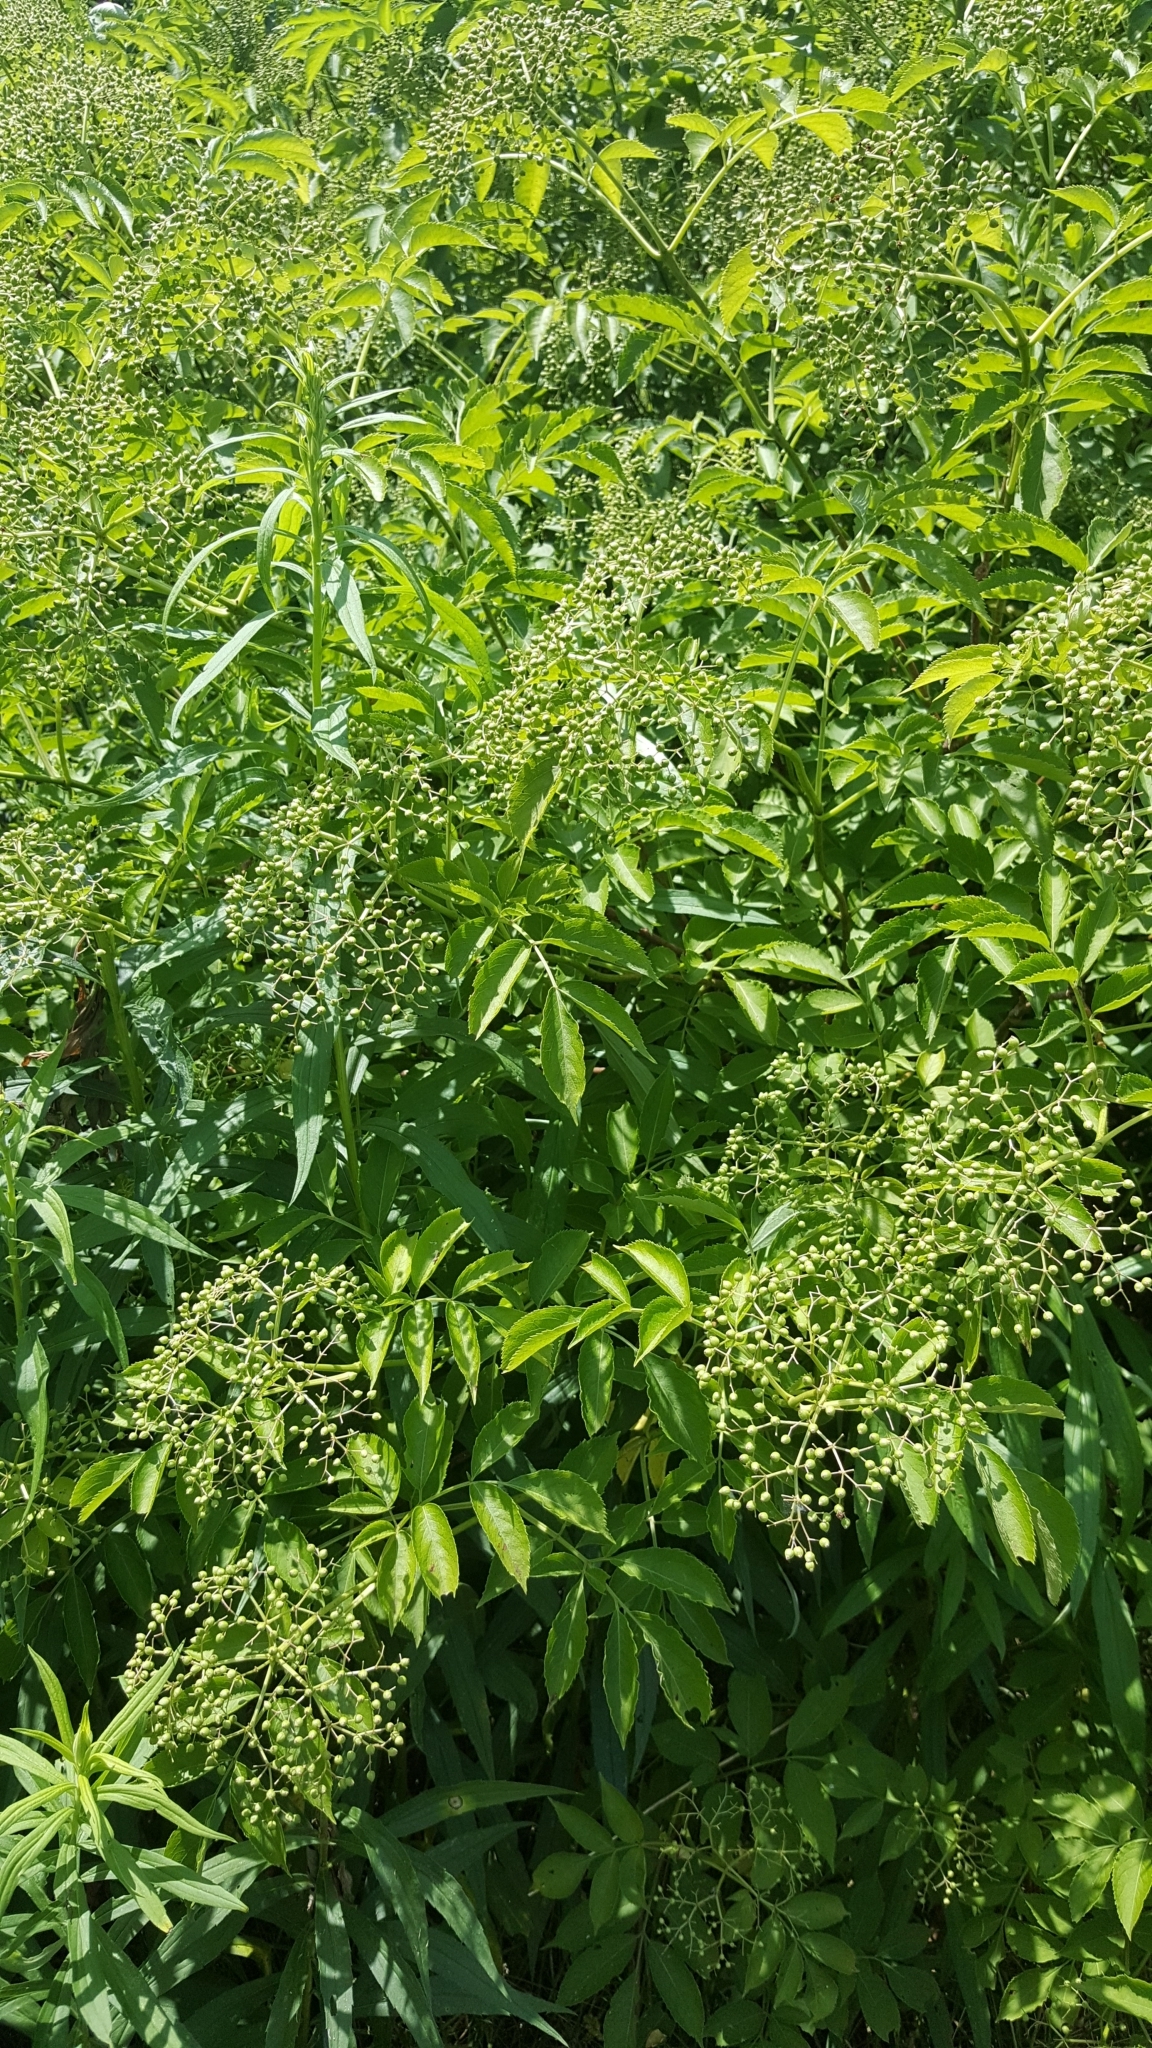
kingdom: Plantae
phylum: Tracheophyta
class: Magnoliopsida
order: Dipsacales
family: Viburnaceae
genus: Sambucus
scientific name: Sambucus canadensis
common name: American elder
